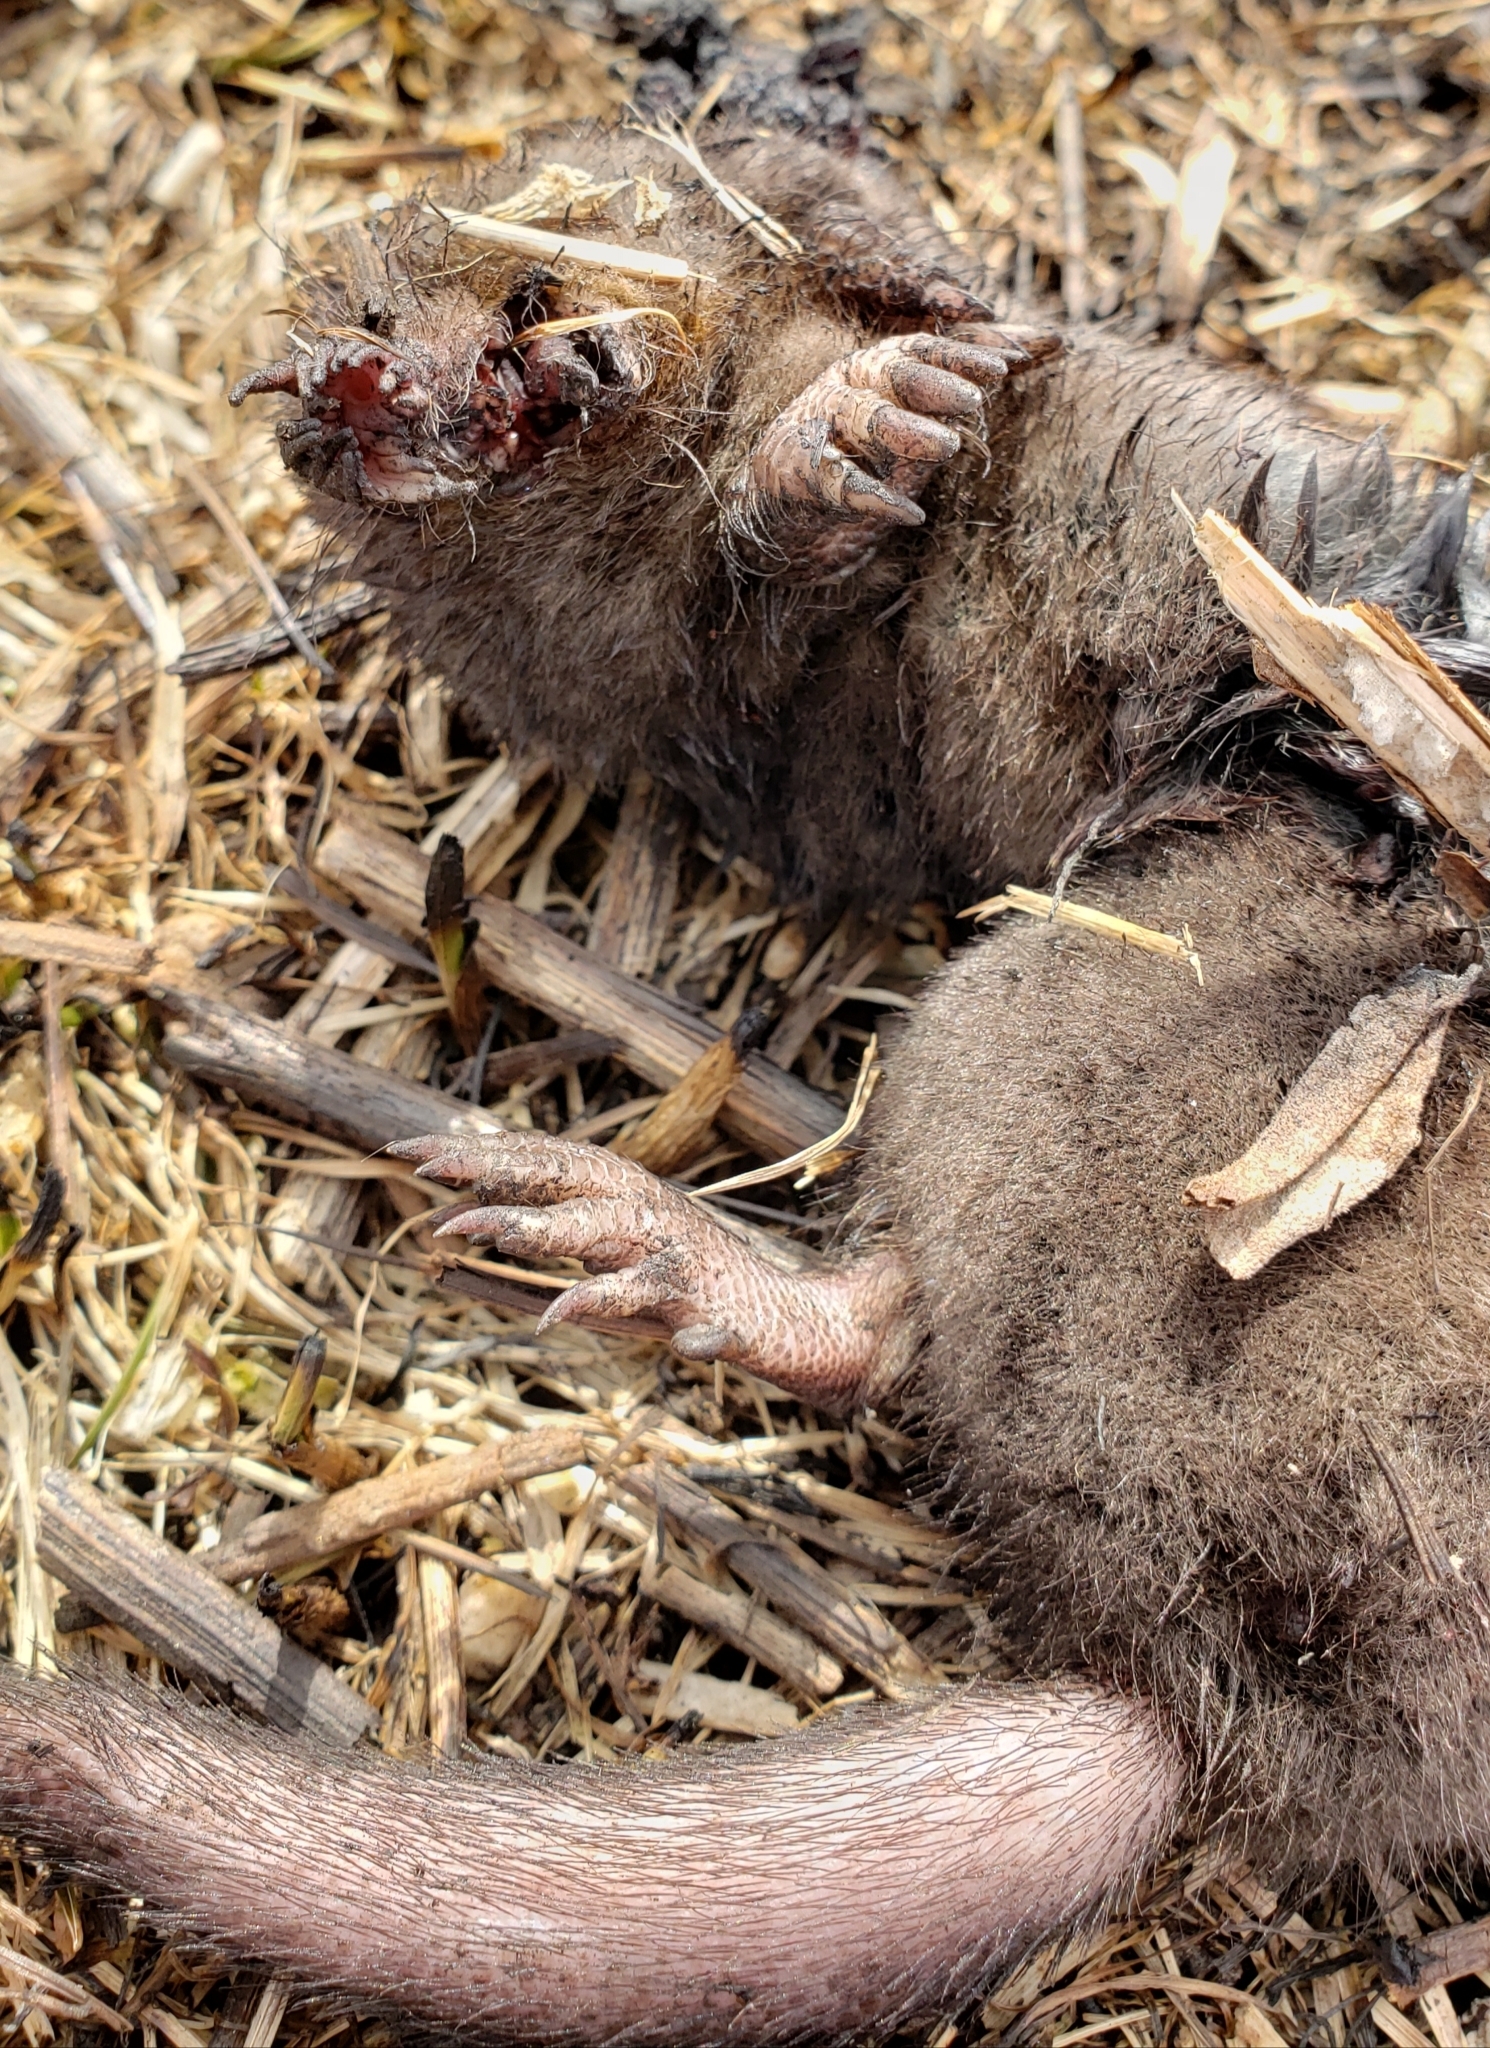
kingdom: Animalia
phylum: Chordata
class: Mammalia
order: Soricomorpha
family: Talpidae
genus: Condylura
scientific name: Condylura cristata
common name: Star-nosed mole
